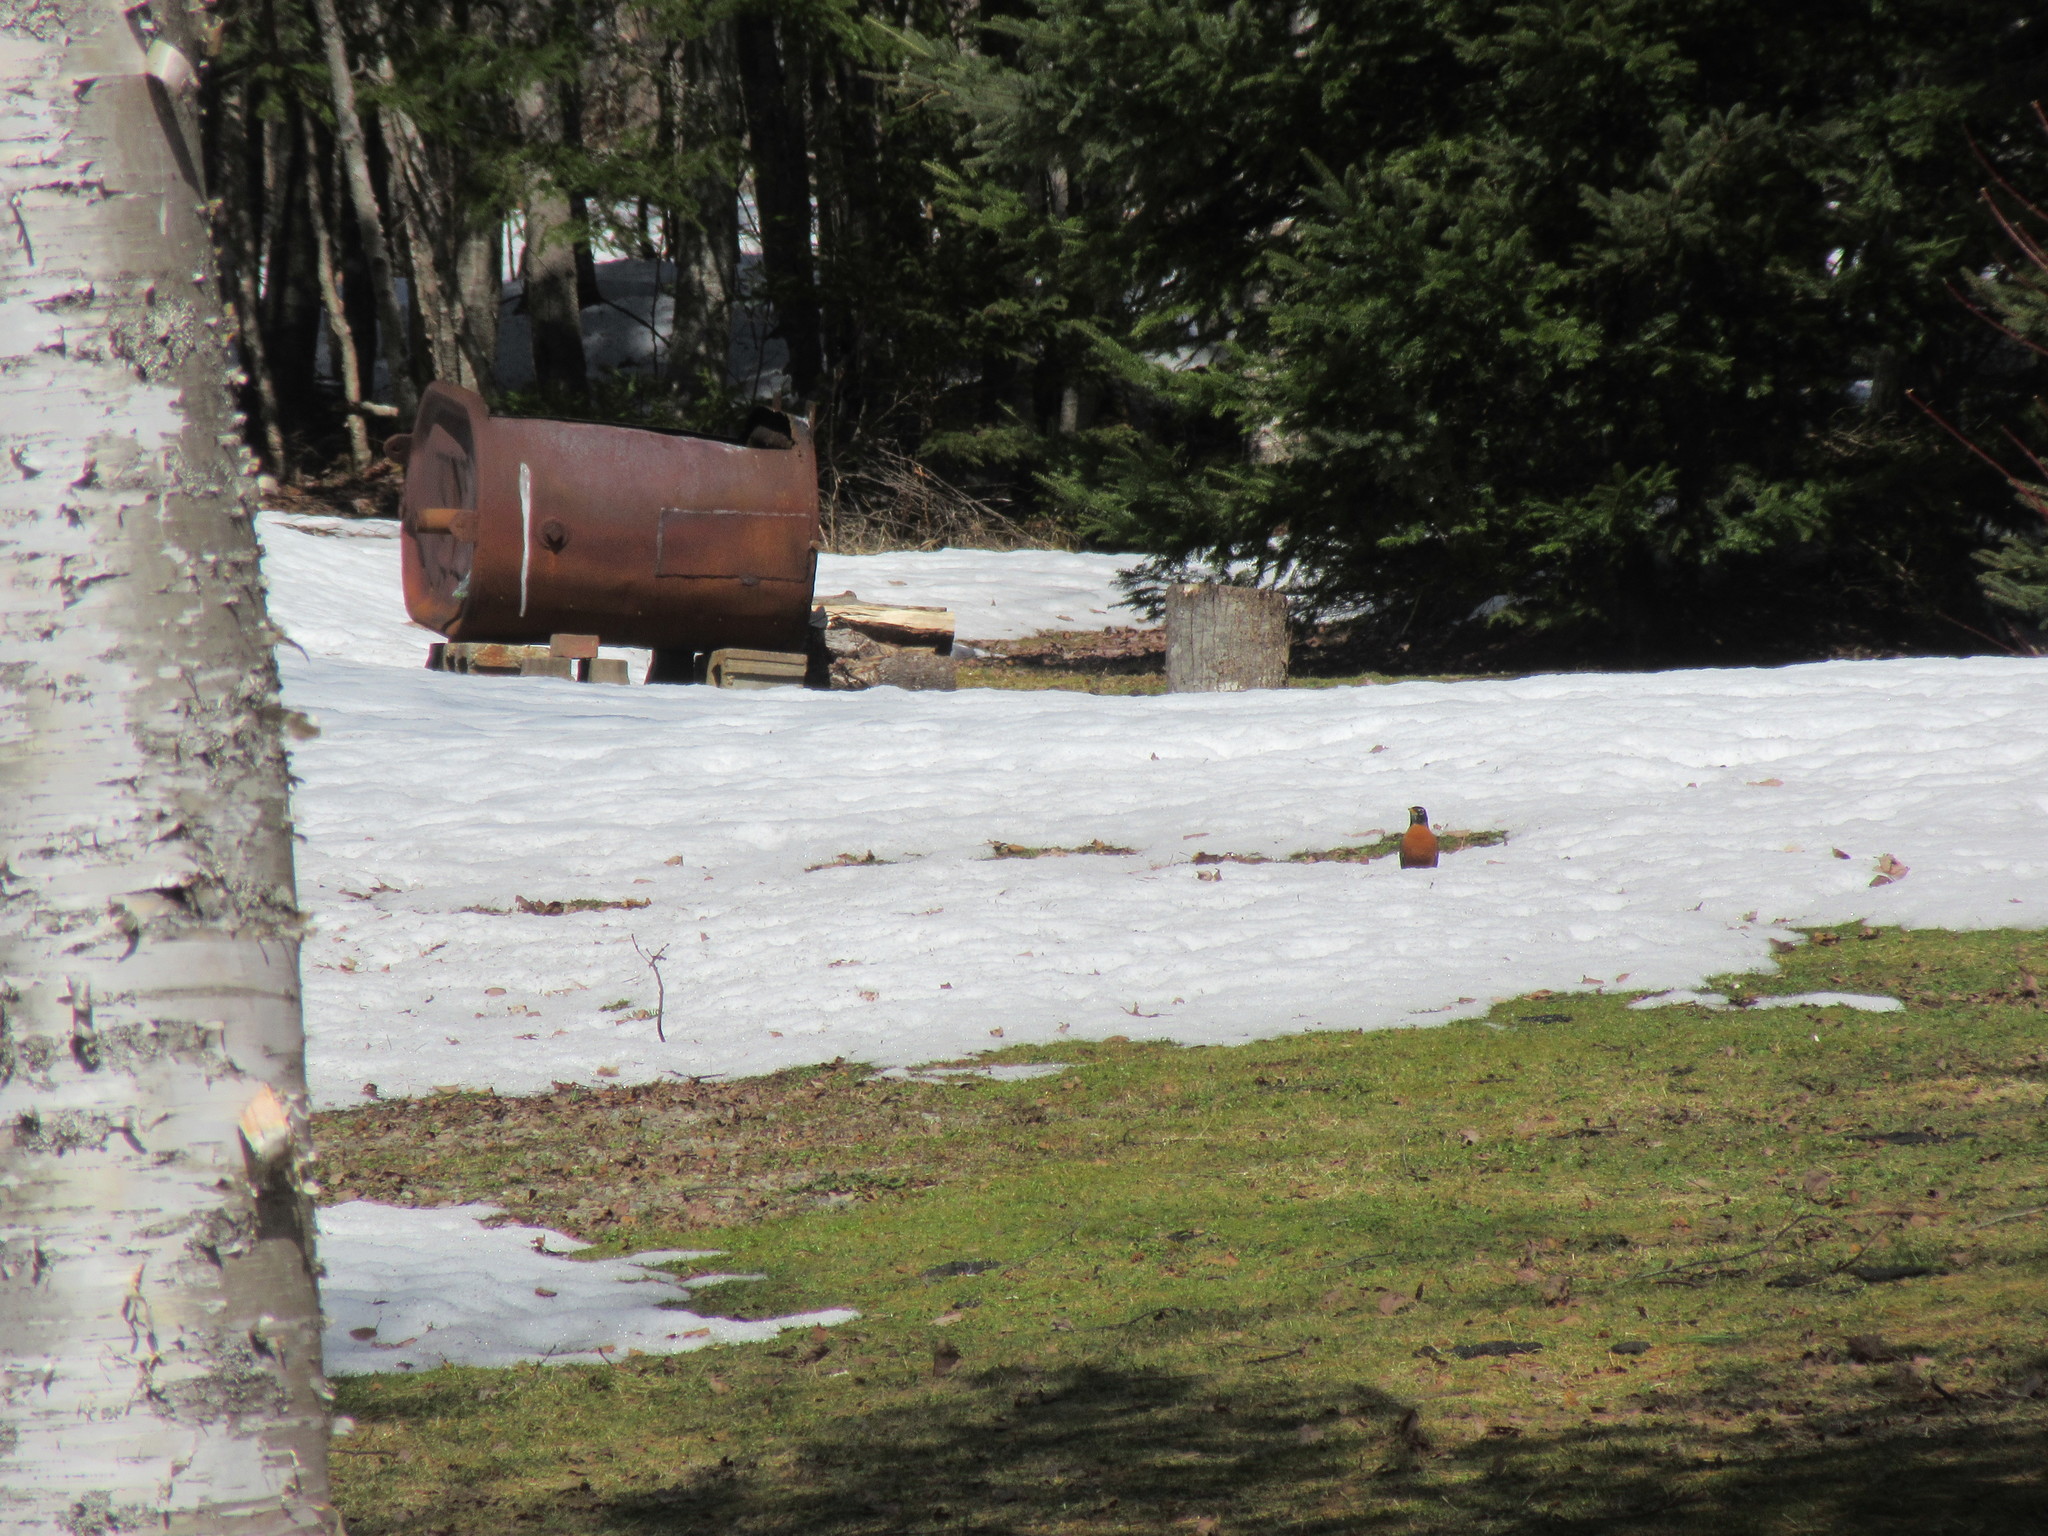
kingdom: Animalia
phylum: Chordata
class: Aves
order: Passeriformes
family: Turdidae
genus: Turdus
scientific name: Turdus migratorius
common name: American robin
